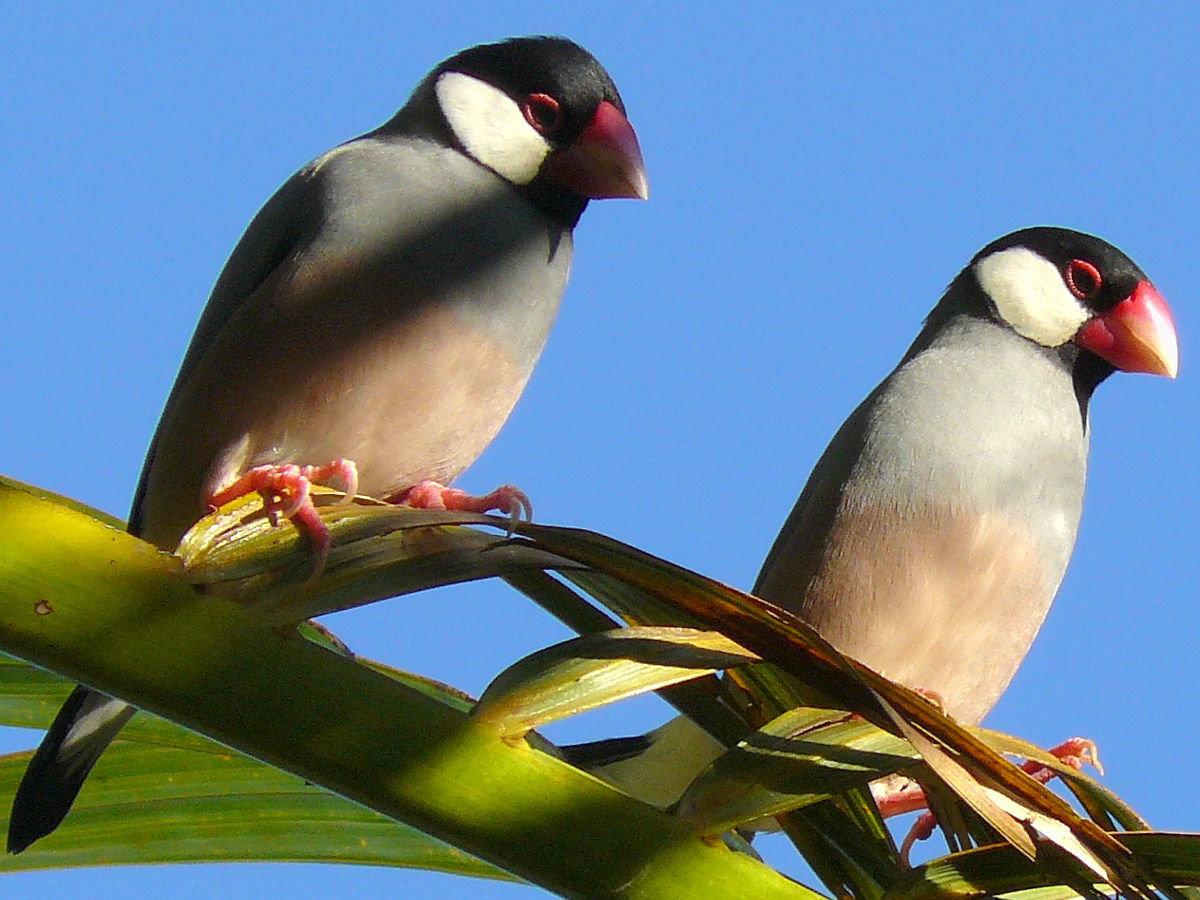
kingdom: Animalia
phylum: Chordata
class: Aves
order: Passeriformes
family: Estrildidae
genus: Lonchura
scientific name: Lonchura oryzivora
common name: Java sparrow
